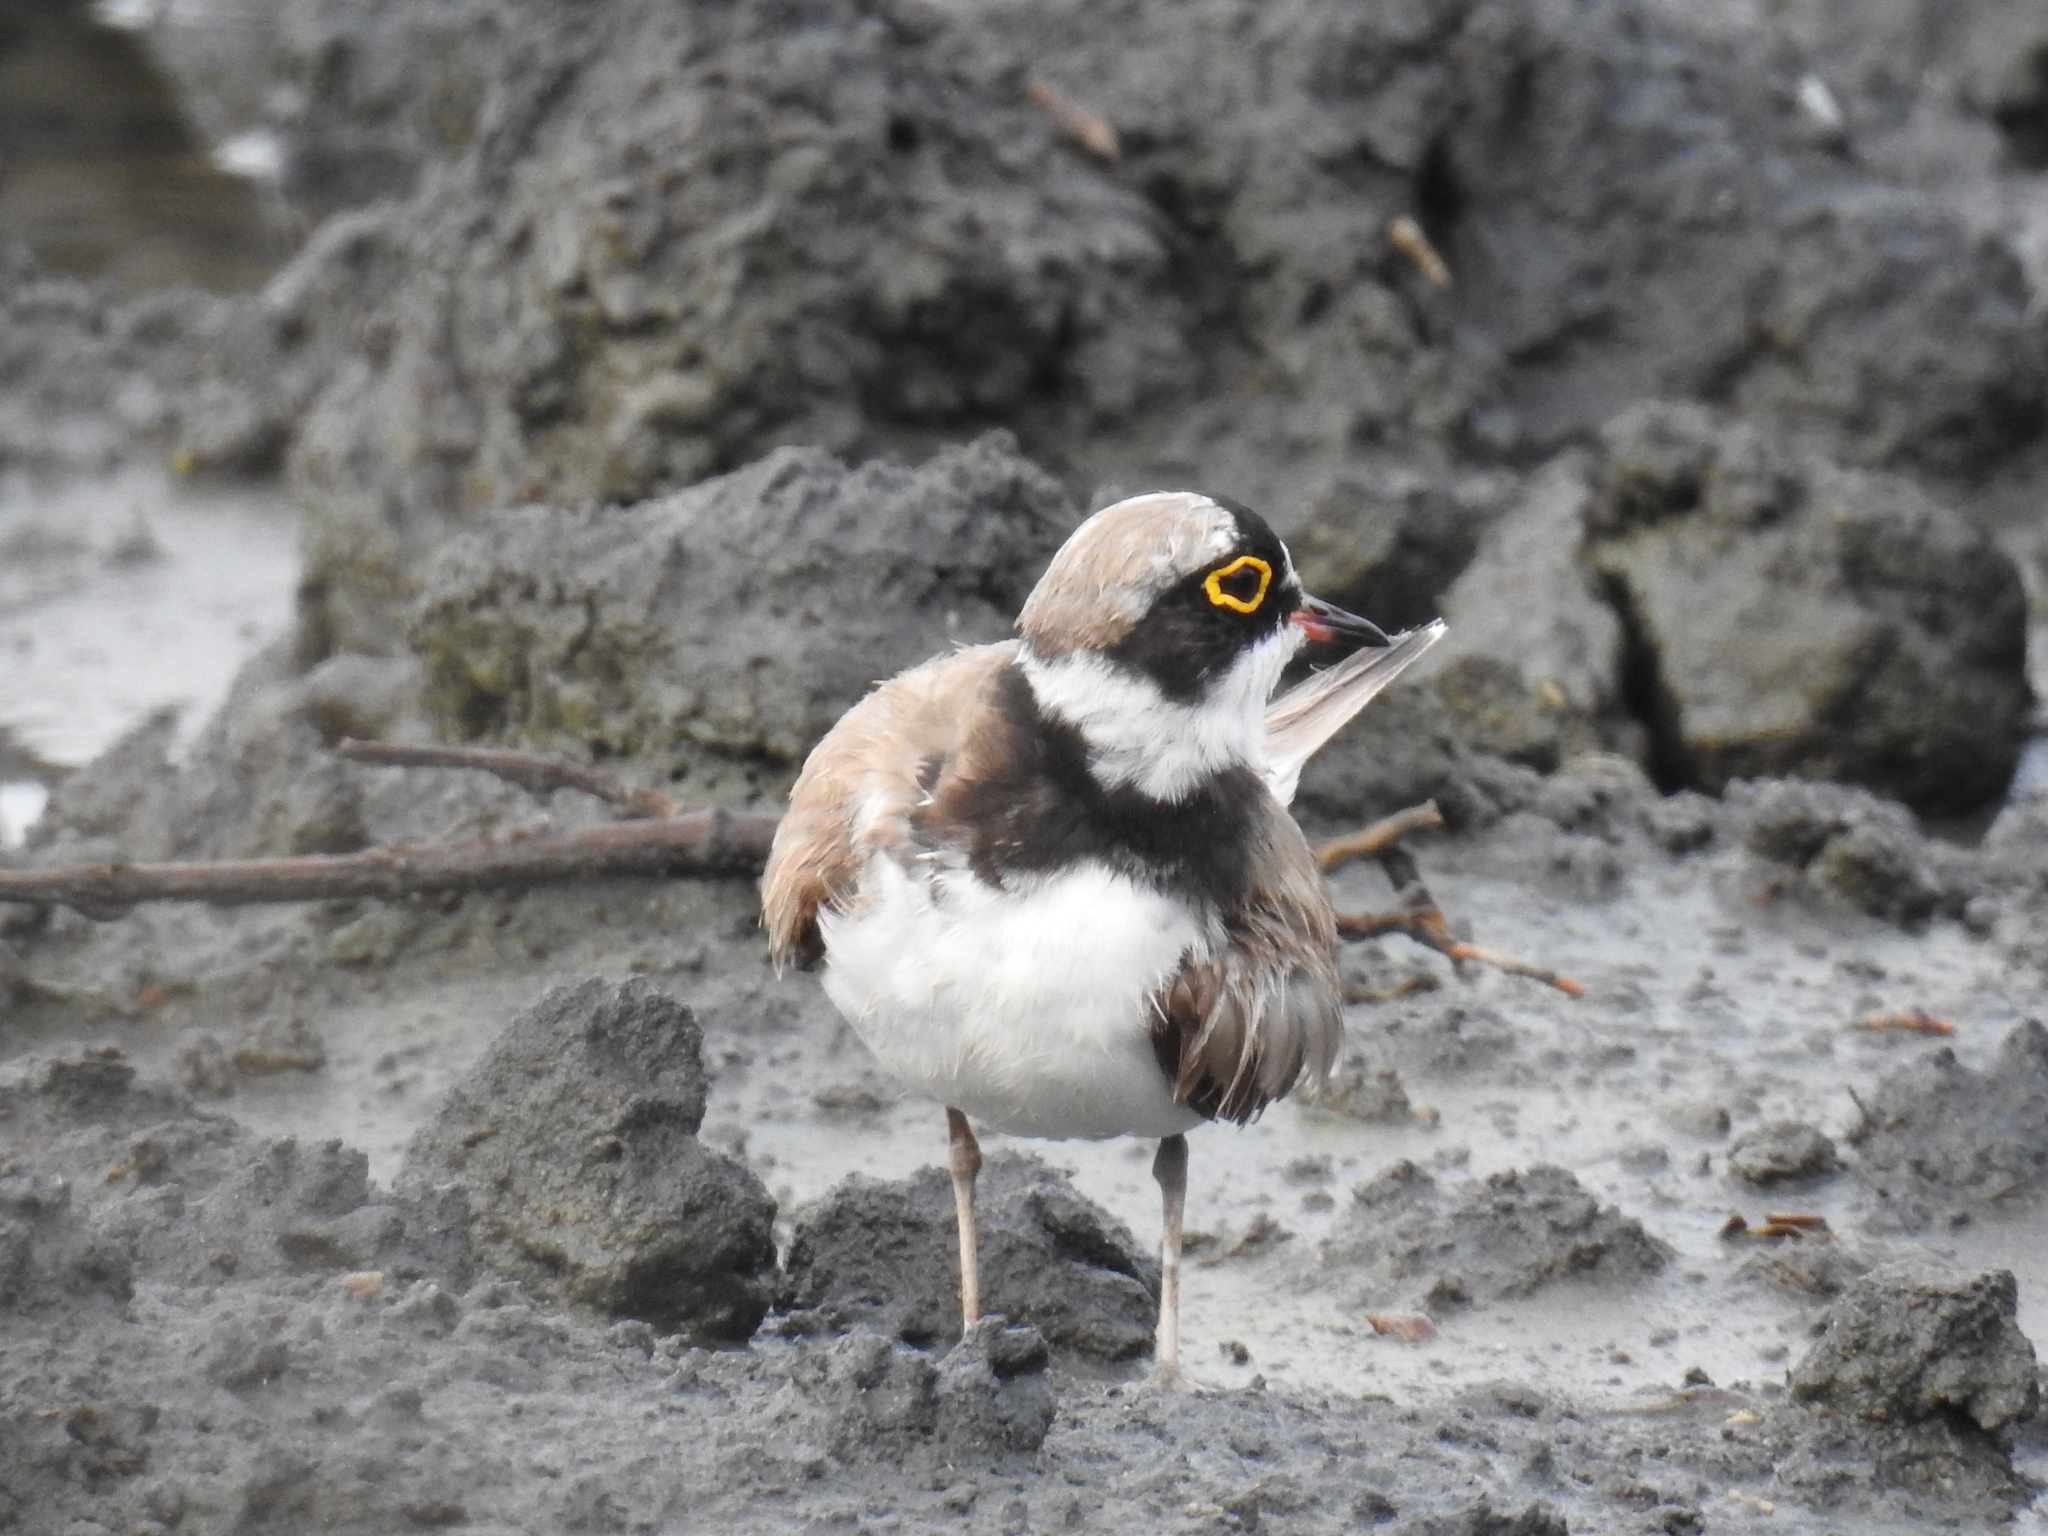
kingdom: Animalia
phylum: Chordata
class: Aves
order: Charadriiformes
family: Charadriidae
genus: Charadrius
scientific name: Charadrius dubius
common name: Little ringed plover
